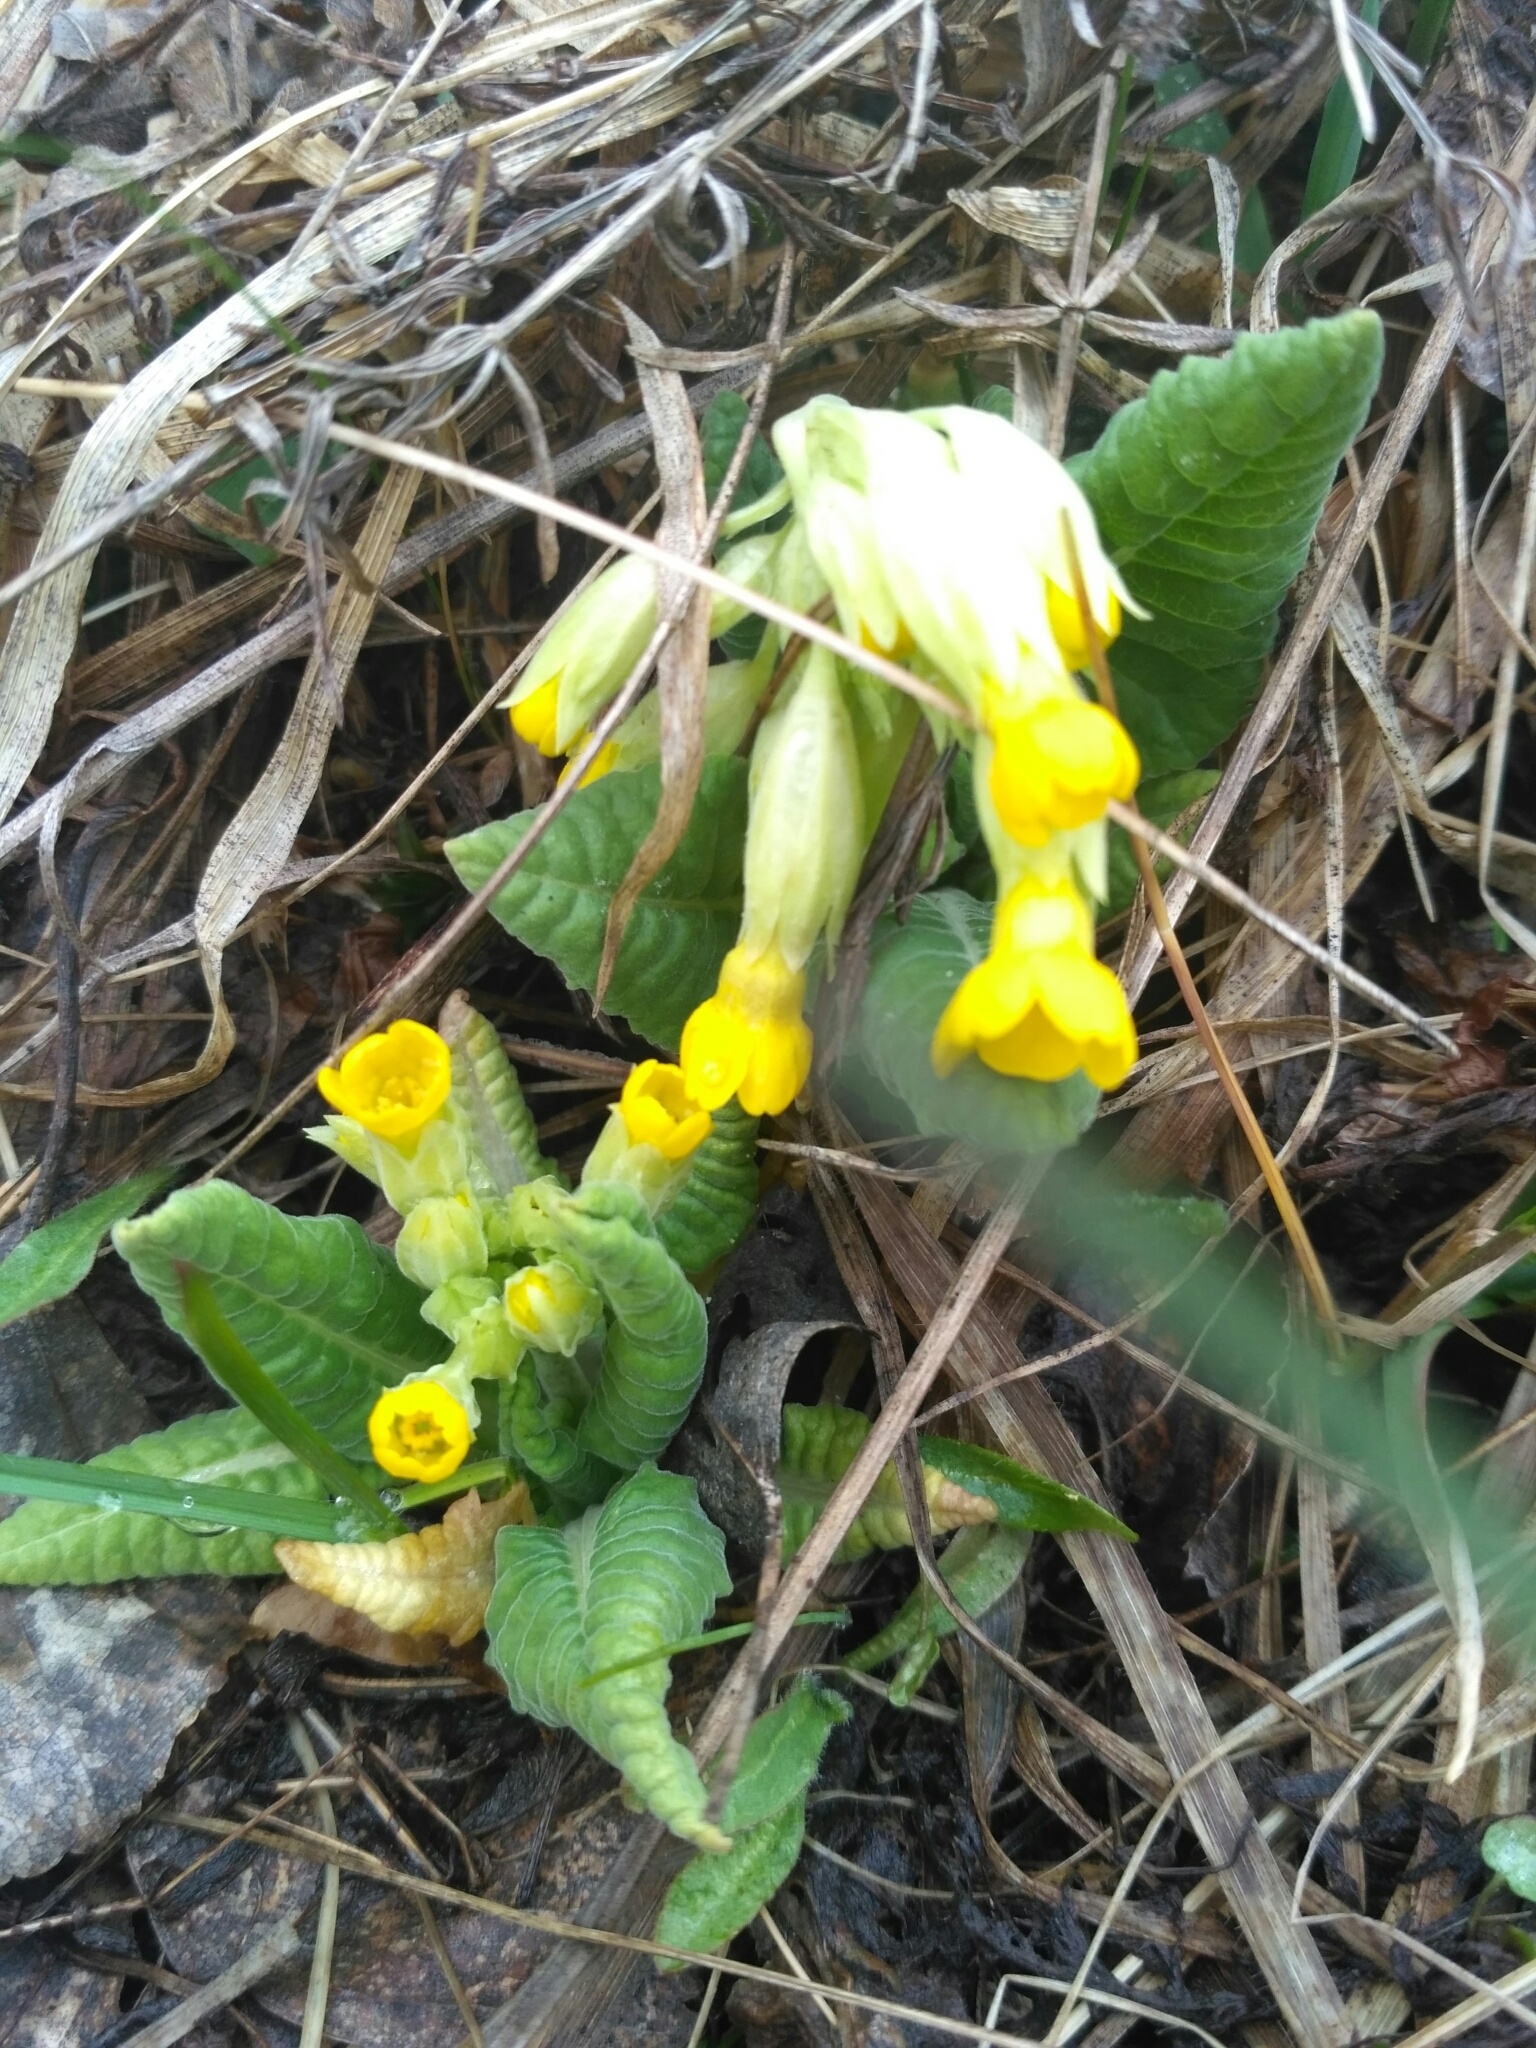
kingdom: Plantae
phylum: Tracheophyta
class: Magnoliopsida
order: Ericales
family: Primulaceae
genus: Primula
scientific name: Primula veris
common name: Cowslip
